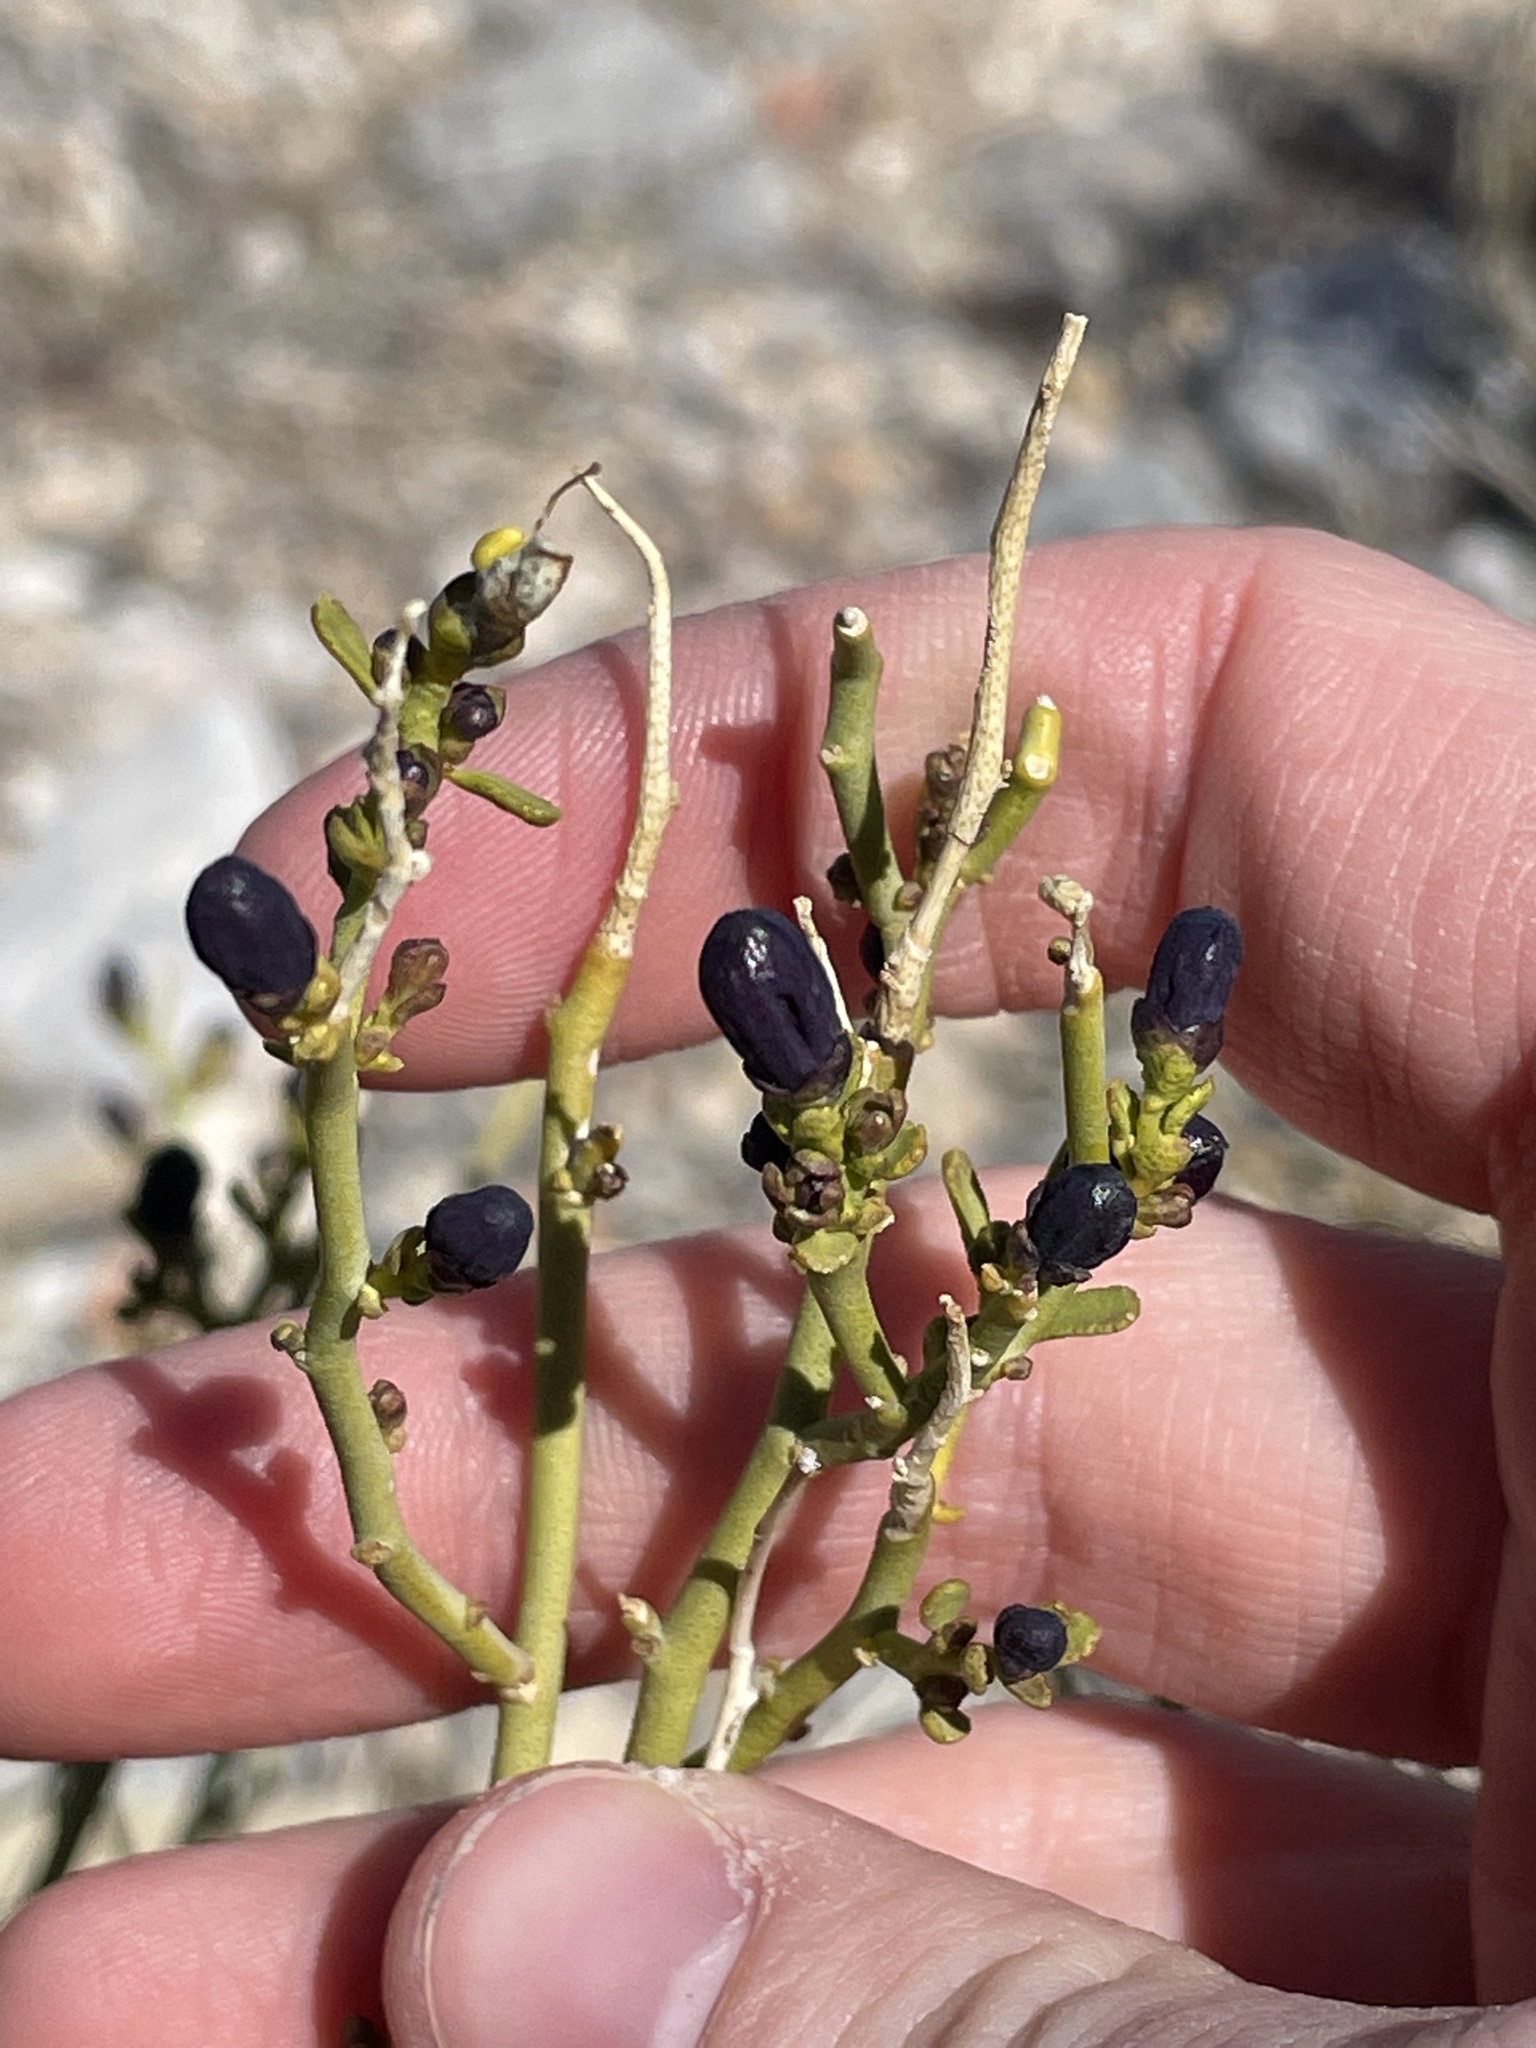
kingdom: Plantae
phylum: Tracheophyta
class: Magnoliopsida
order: Sapindales
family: Rutaceae
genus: Thamnosma
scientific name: Thamnosma montana
